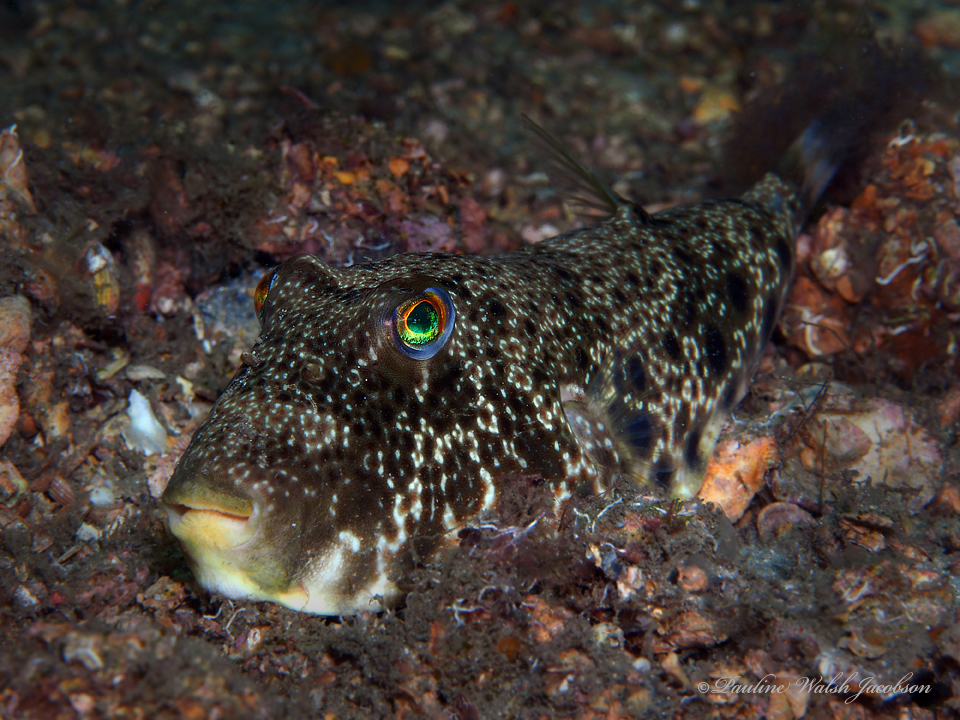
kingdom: Animalia
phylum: Chordata
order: Tetraodontiformes
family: Tetraodontidae
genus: Sphoeroides
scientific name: Sphoeroides nephelus
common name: Southern puffer
